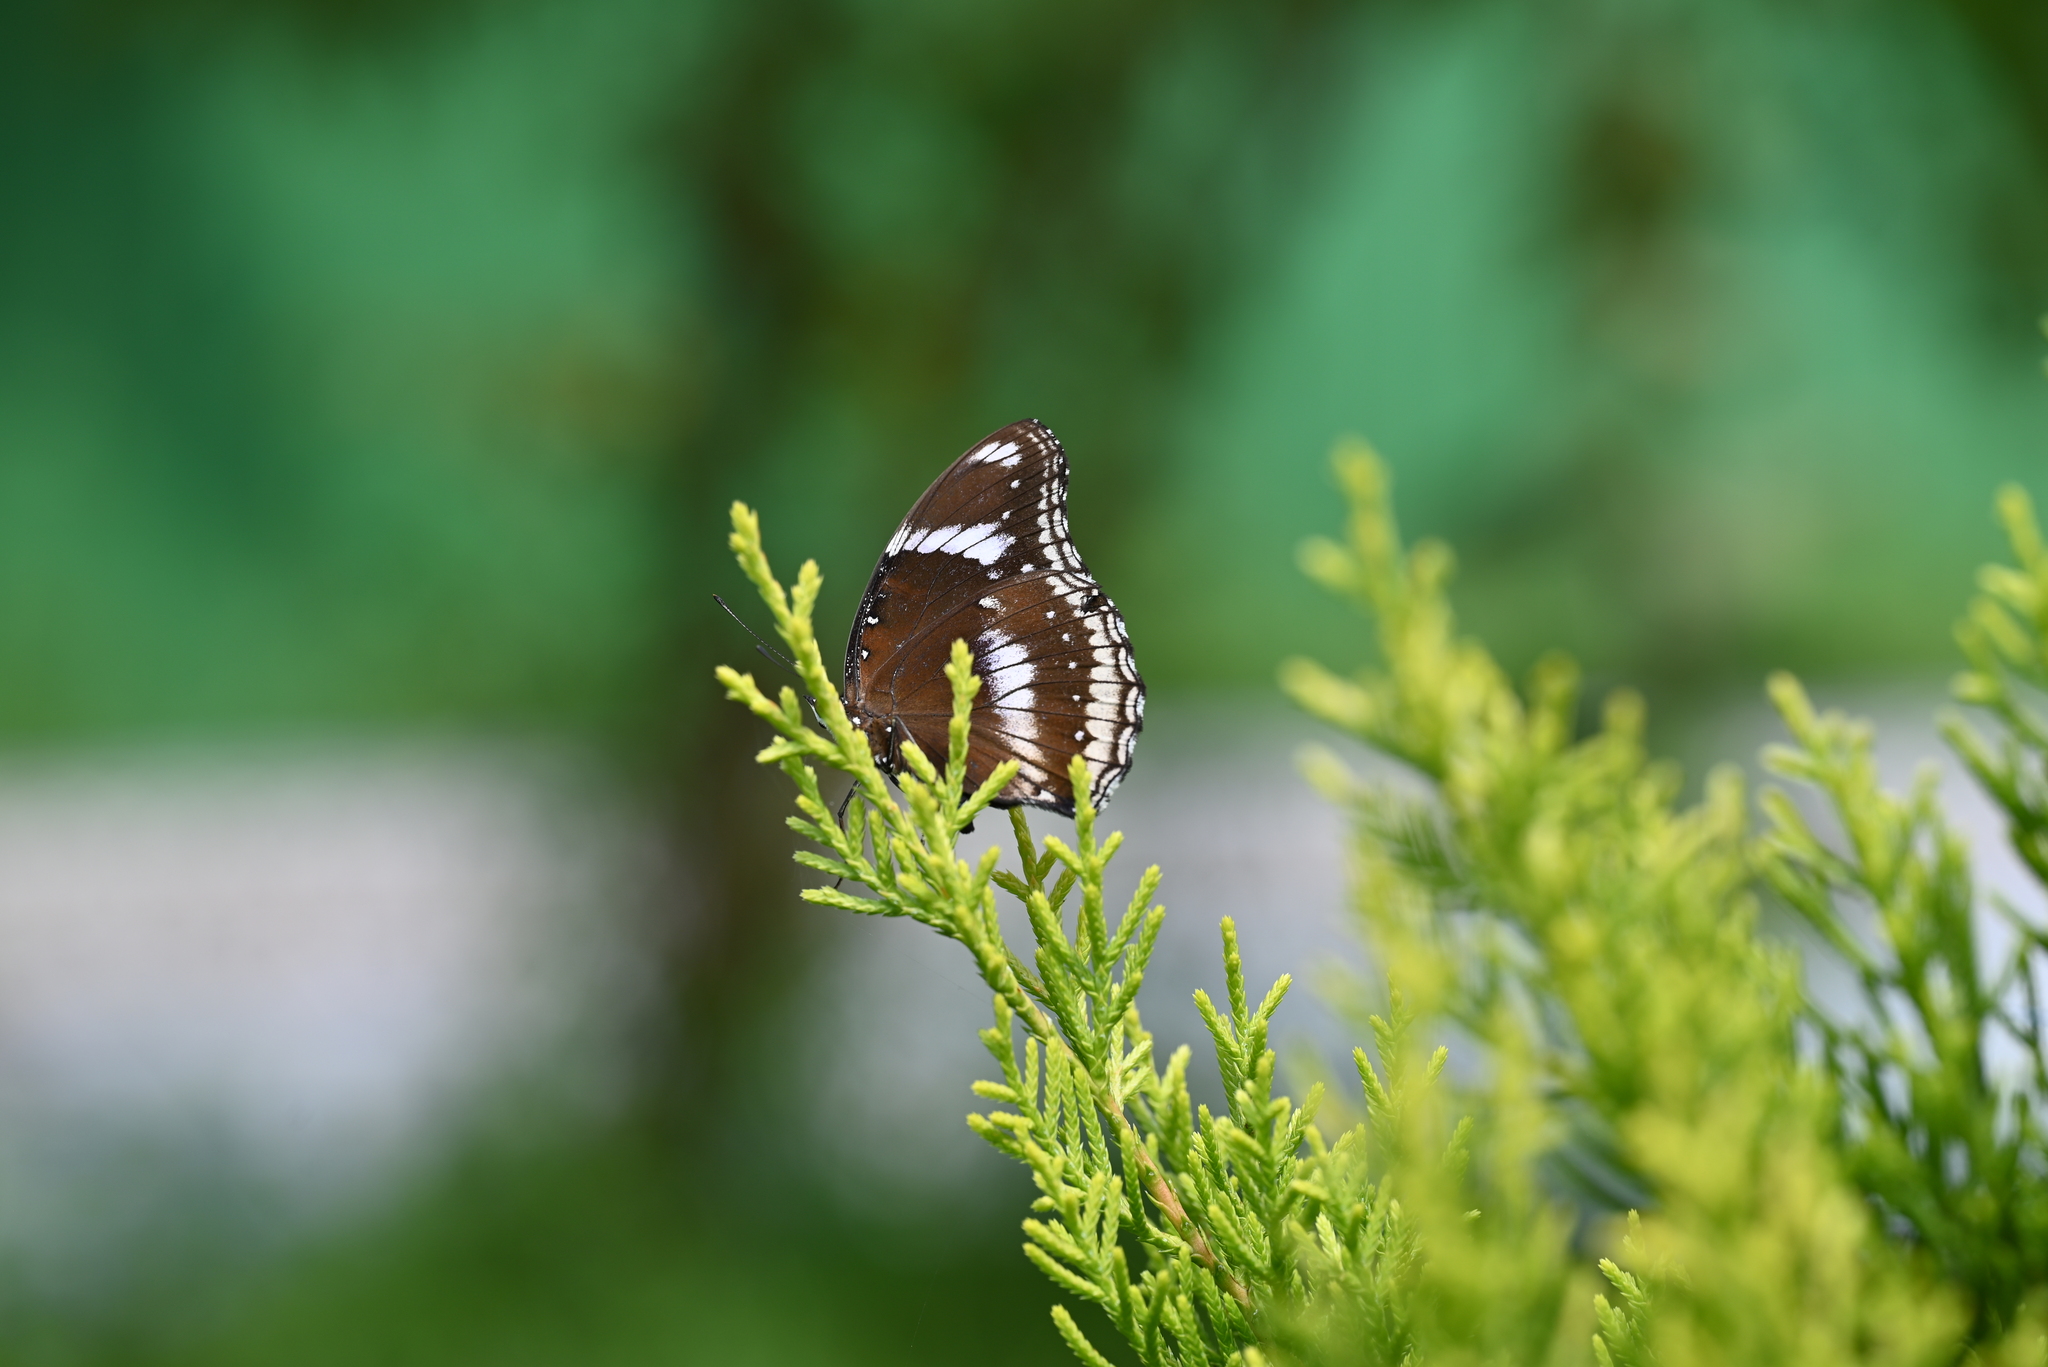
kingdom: Animalia
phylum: Arthropoda
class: Insecta
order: Lepidoptera
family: Nymphalidae
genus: Hypolimnas
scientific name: Hypolimnas bolina
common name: Great eggfly
